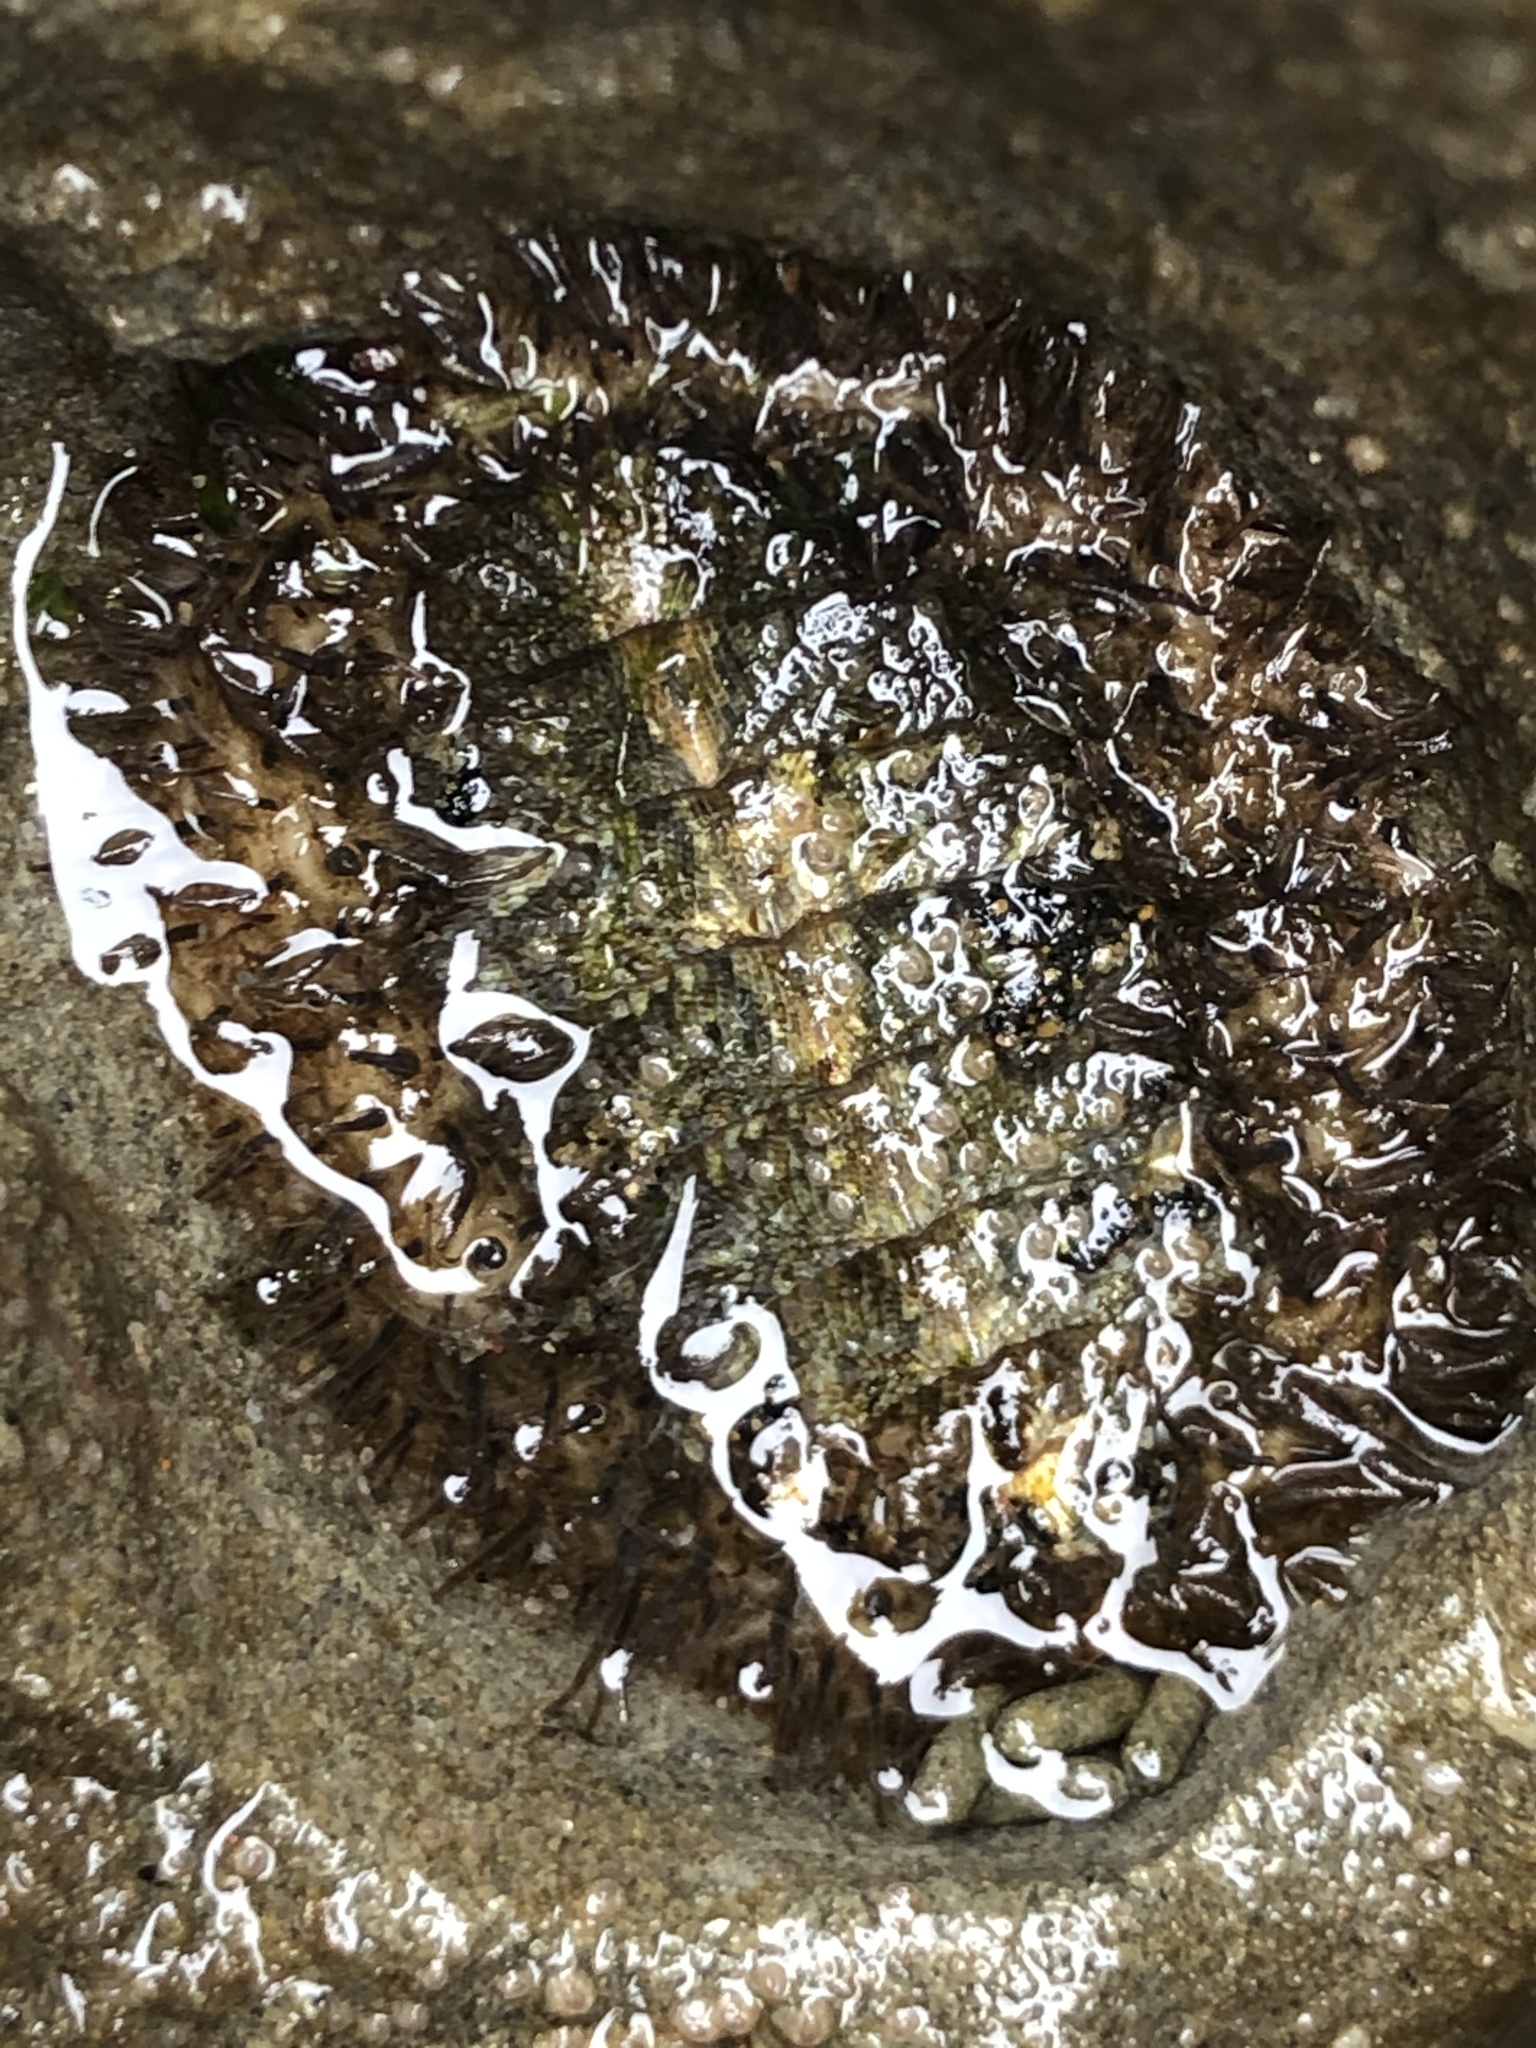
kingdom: Animalia
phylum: Mollusca
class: Polyplacophora
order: Chitonida
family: Mopaliidae
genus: Mopalia
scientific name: Mopalia muscosa
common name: Mossy chiton
